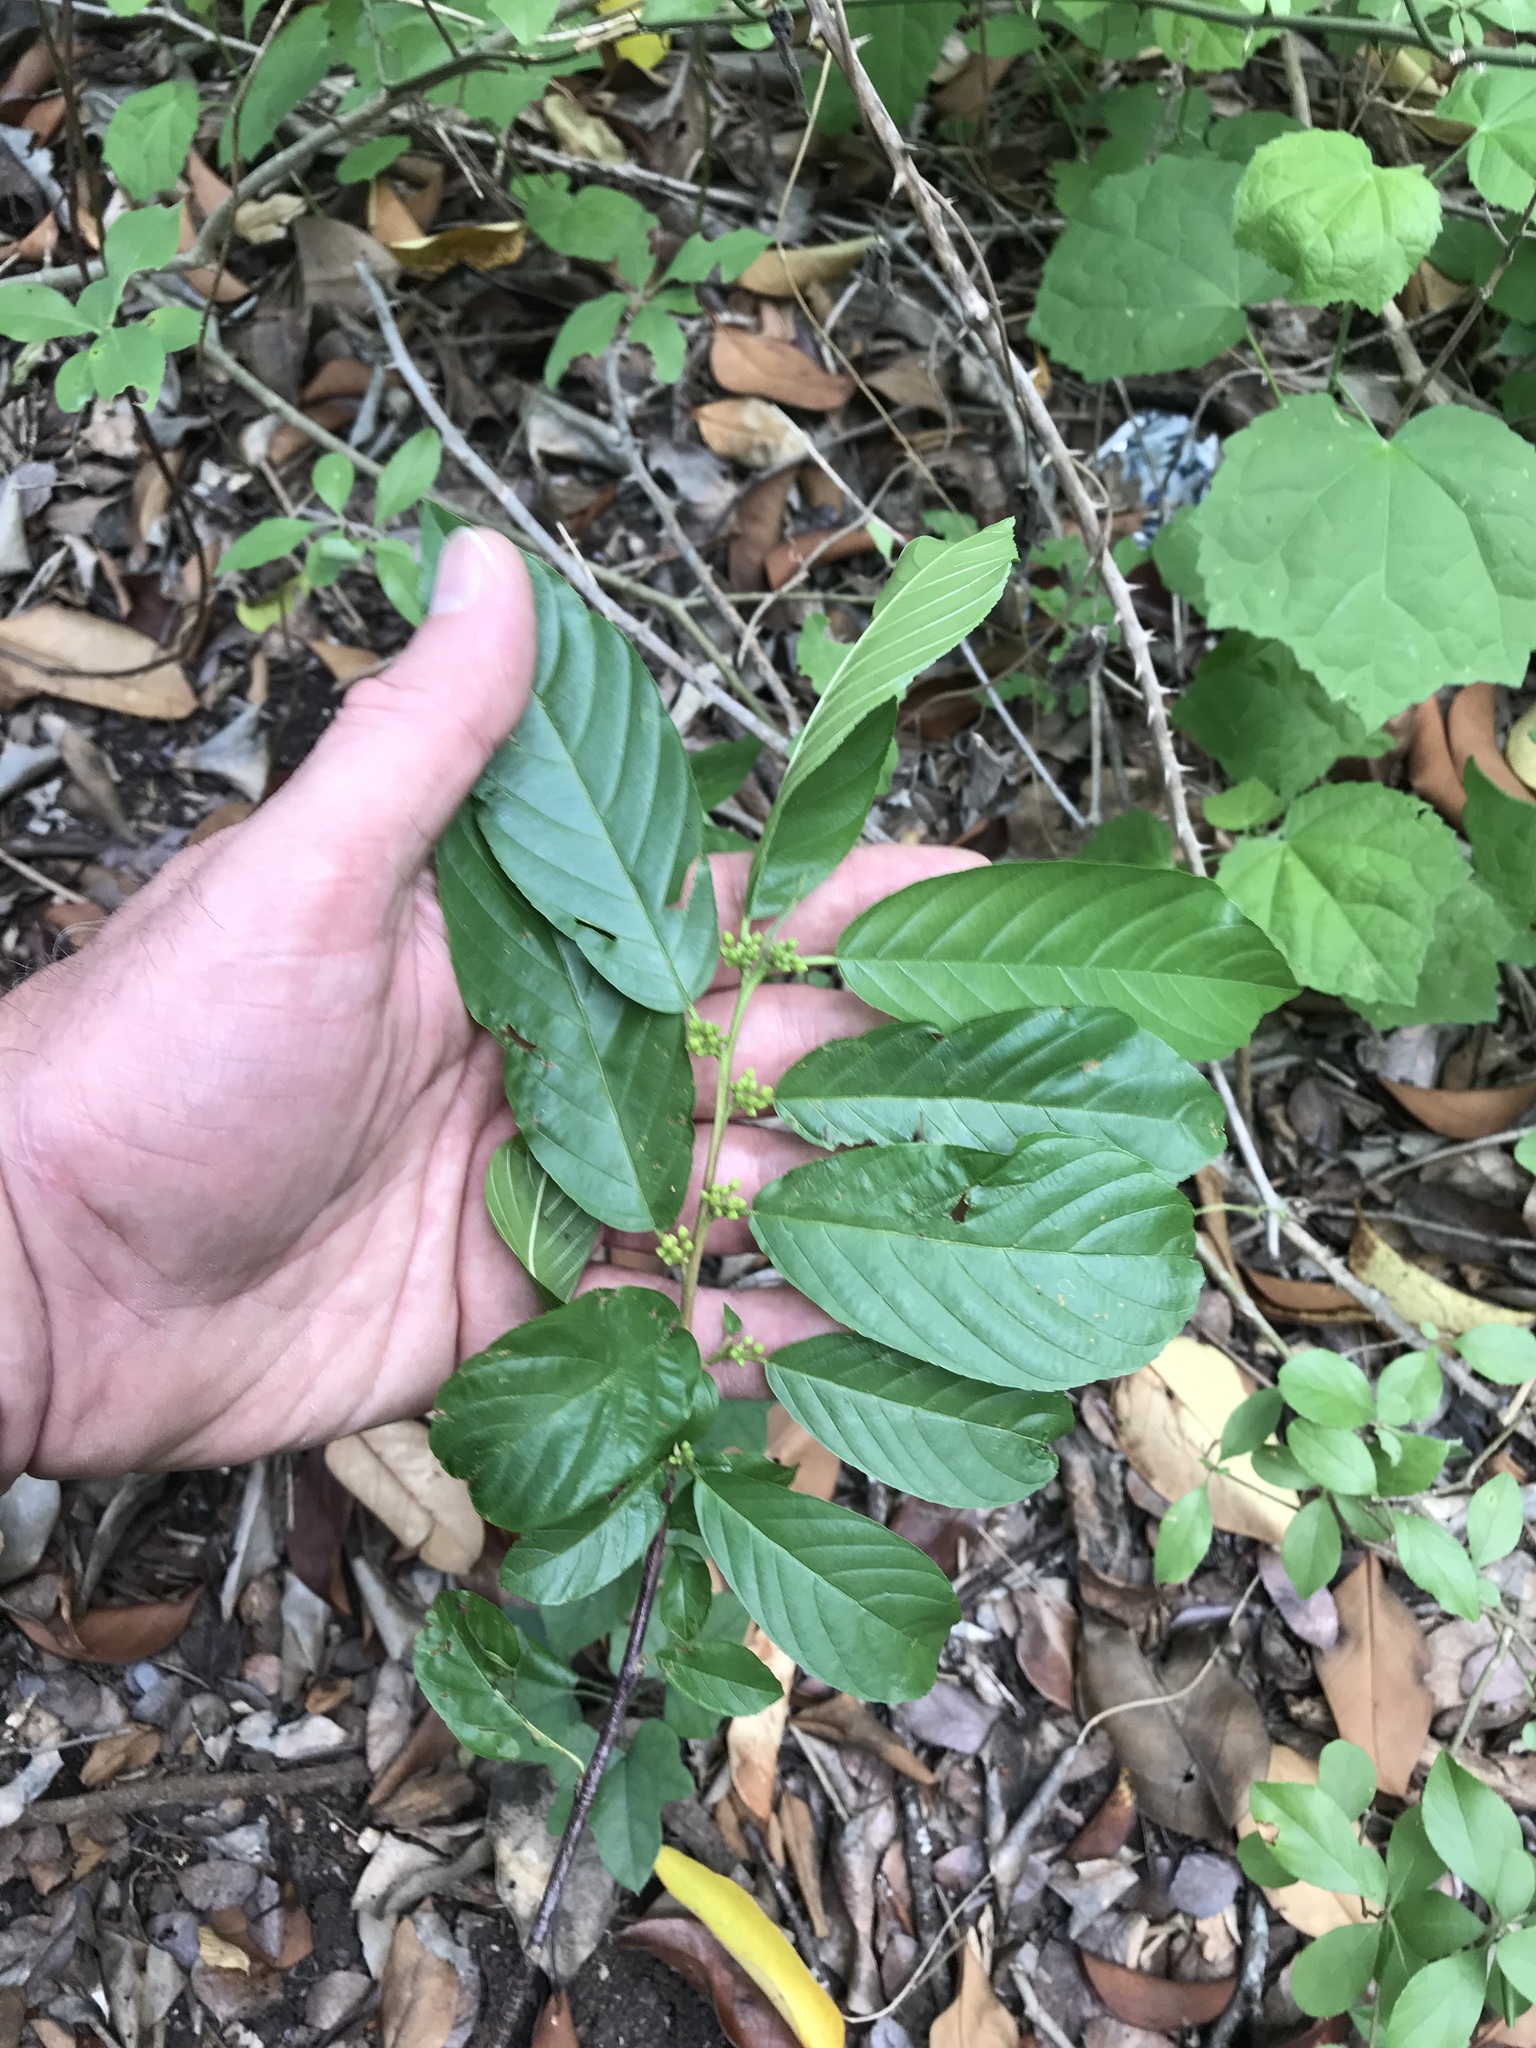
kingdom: Plantae
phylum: Tracheophyta
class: Magnoliopsida
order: Rosales
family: Rhamnaceae
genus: Frangula
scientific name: Frangula caroliniana
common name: Carolina buckthorn
